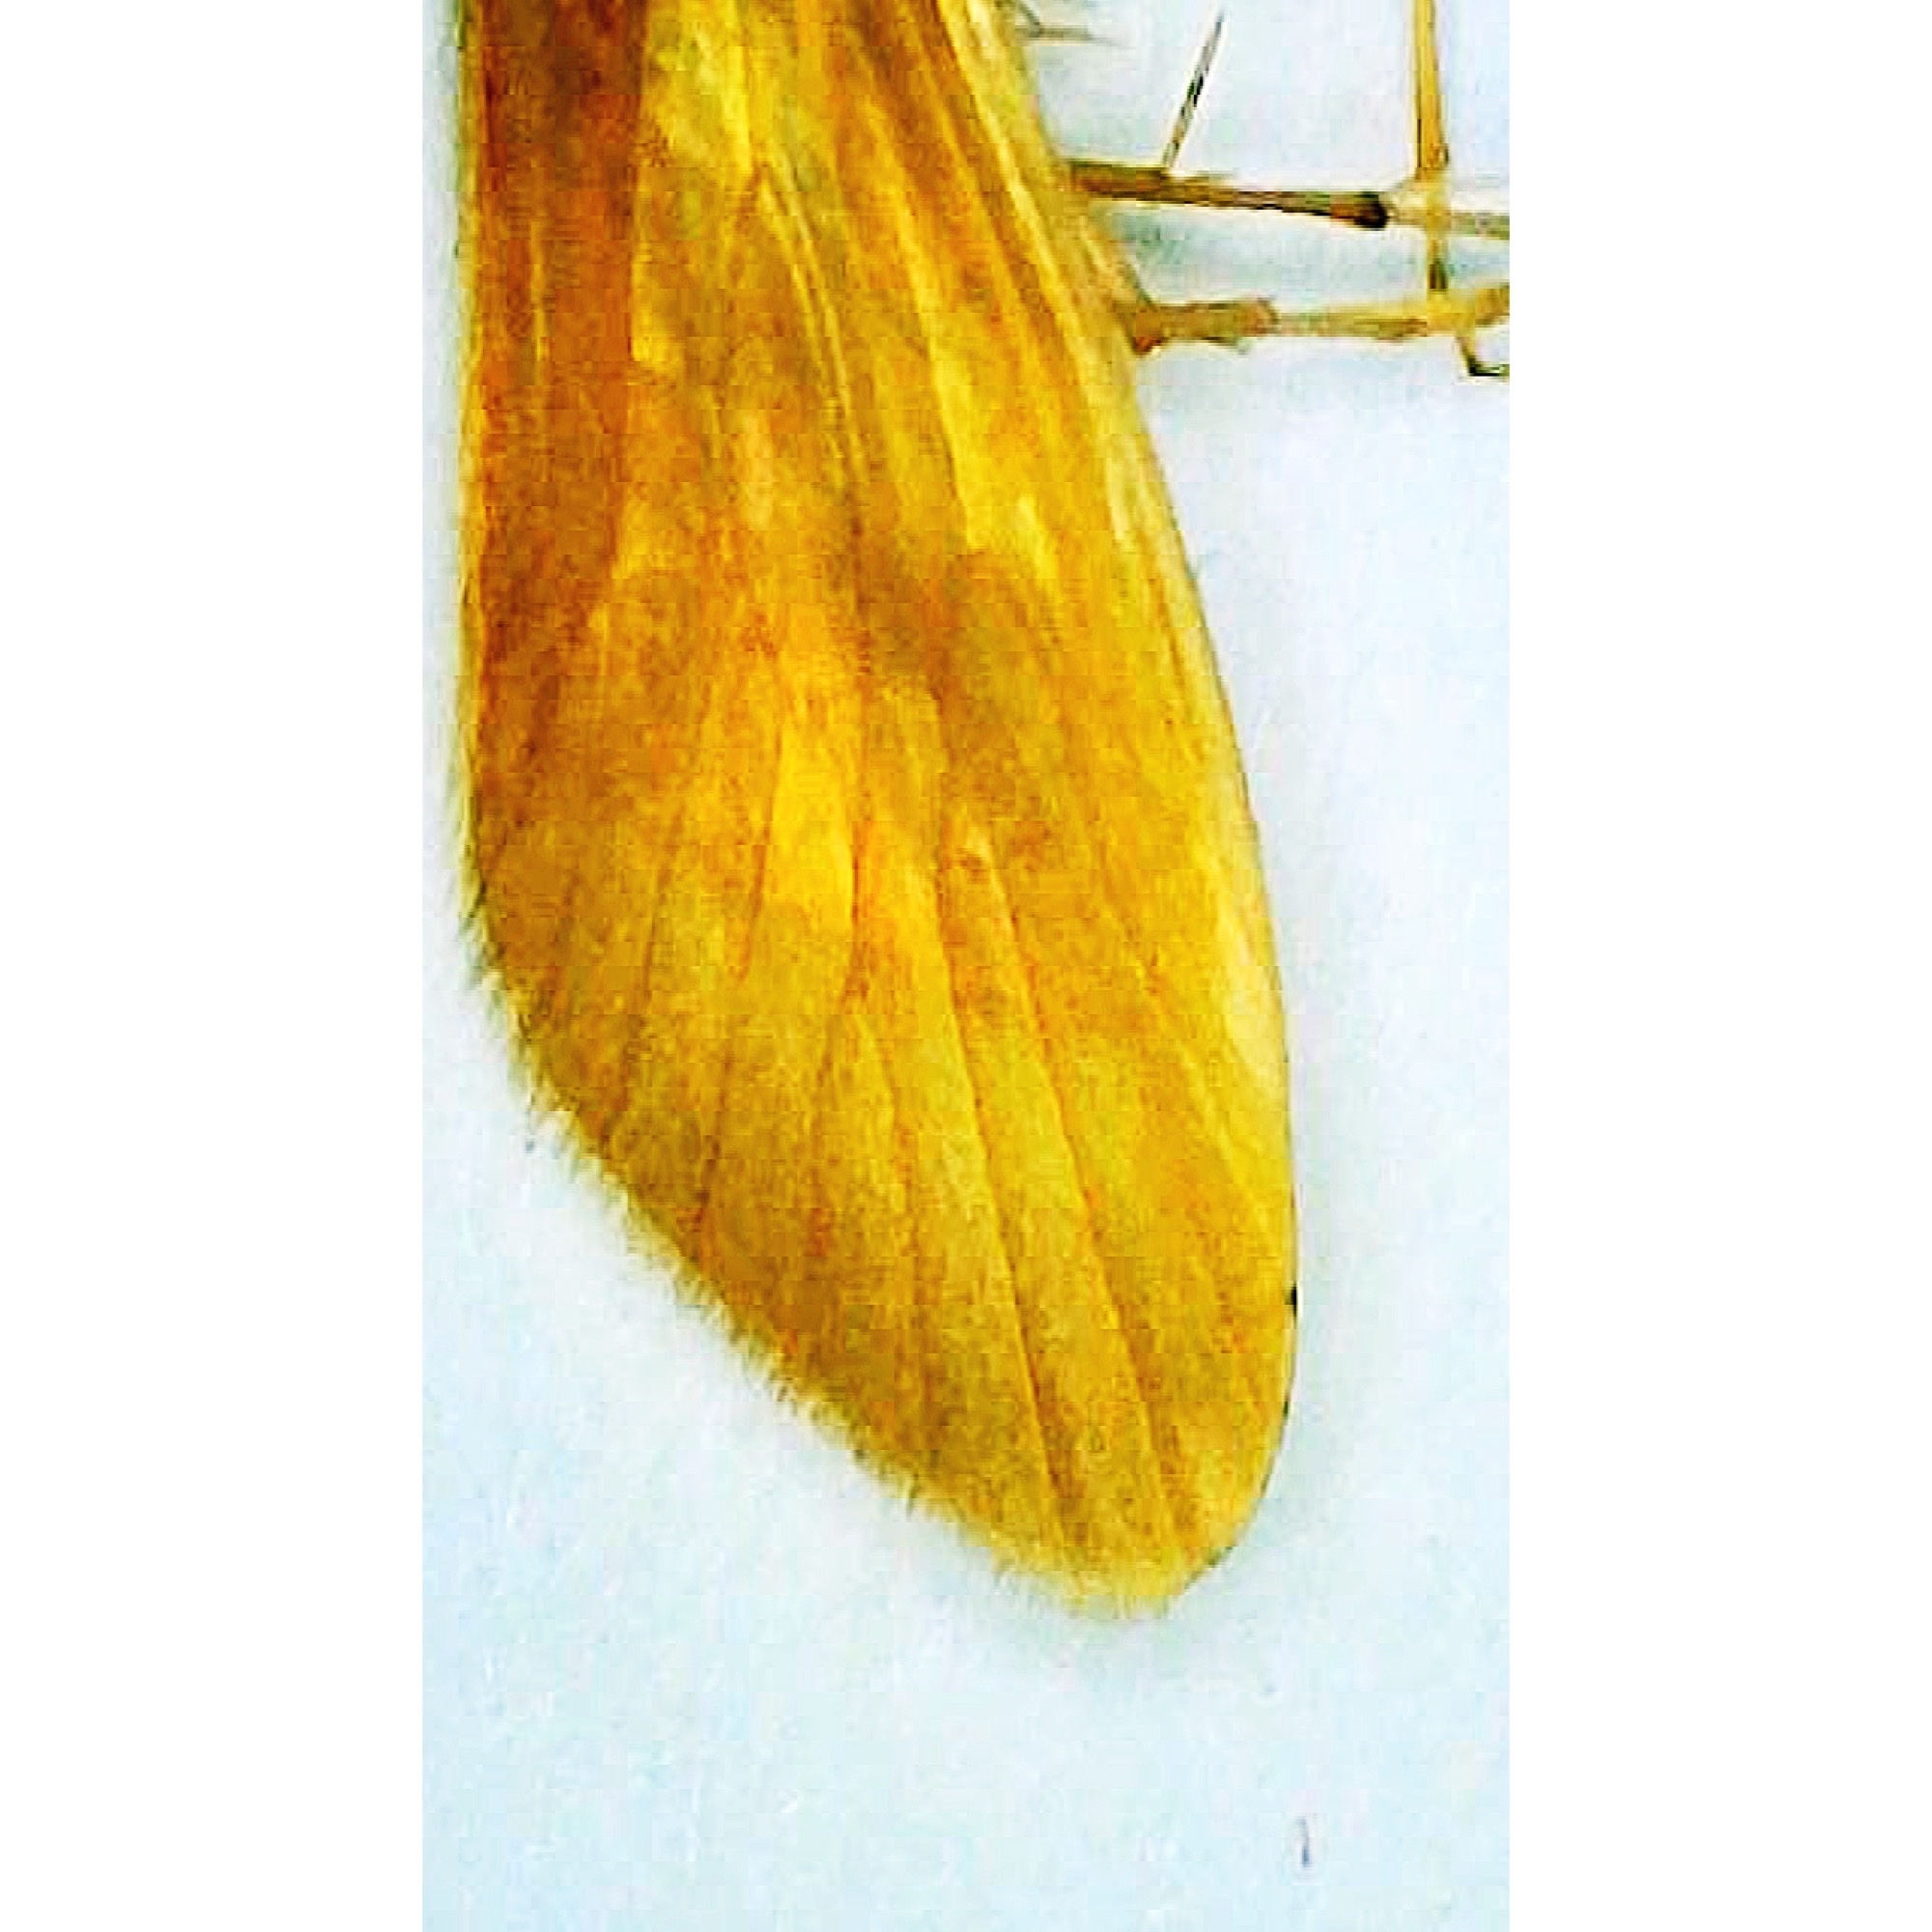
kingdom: Animalia
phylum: Arthropoda
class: Insecta
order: Trichoptera
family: Hydropsychidae
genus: Potamyia
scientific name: Potamyia flava
